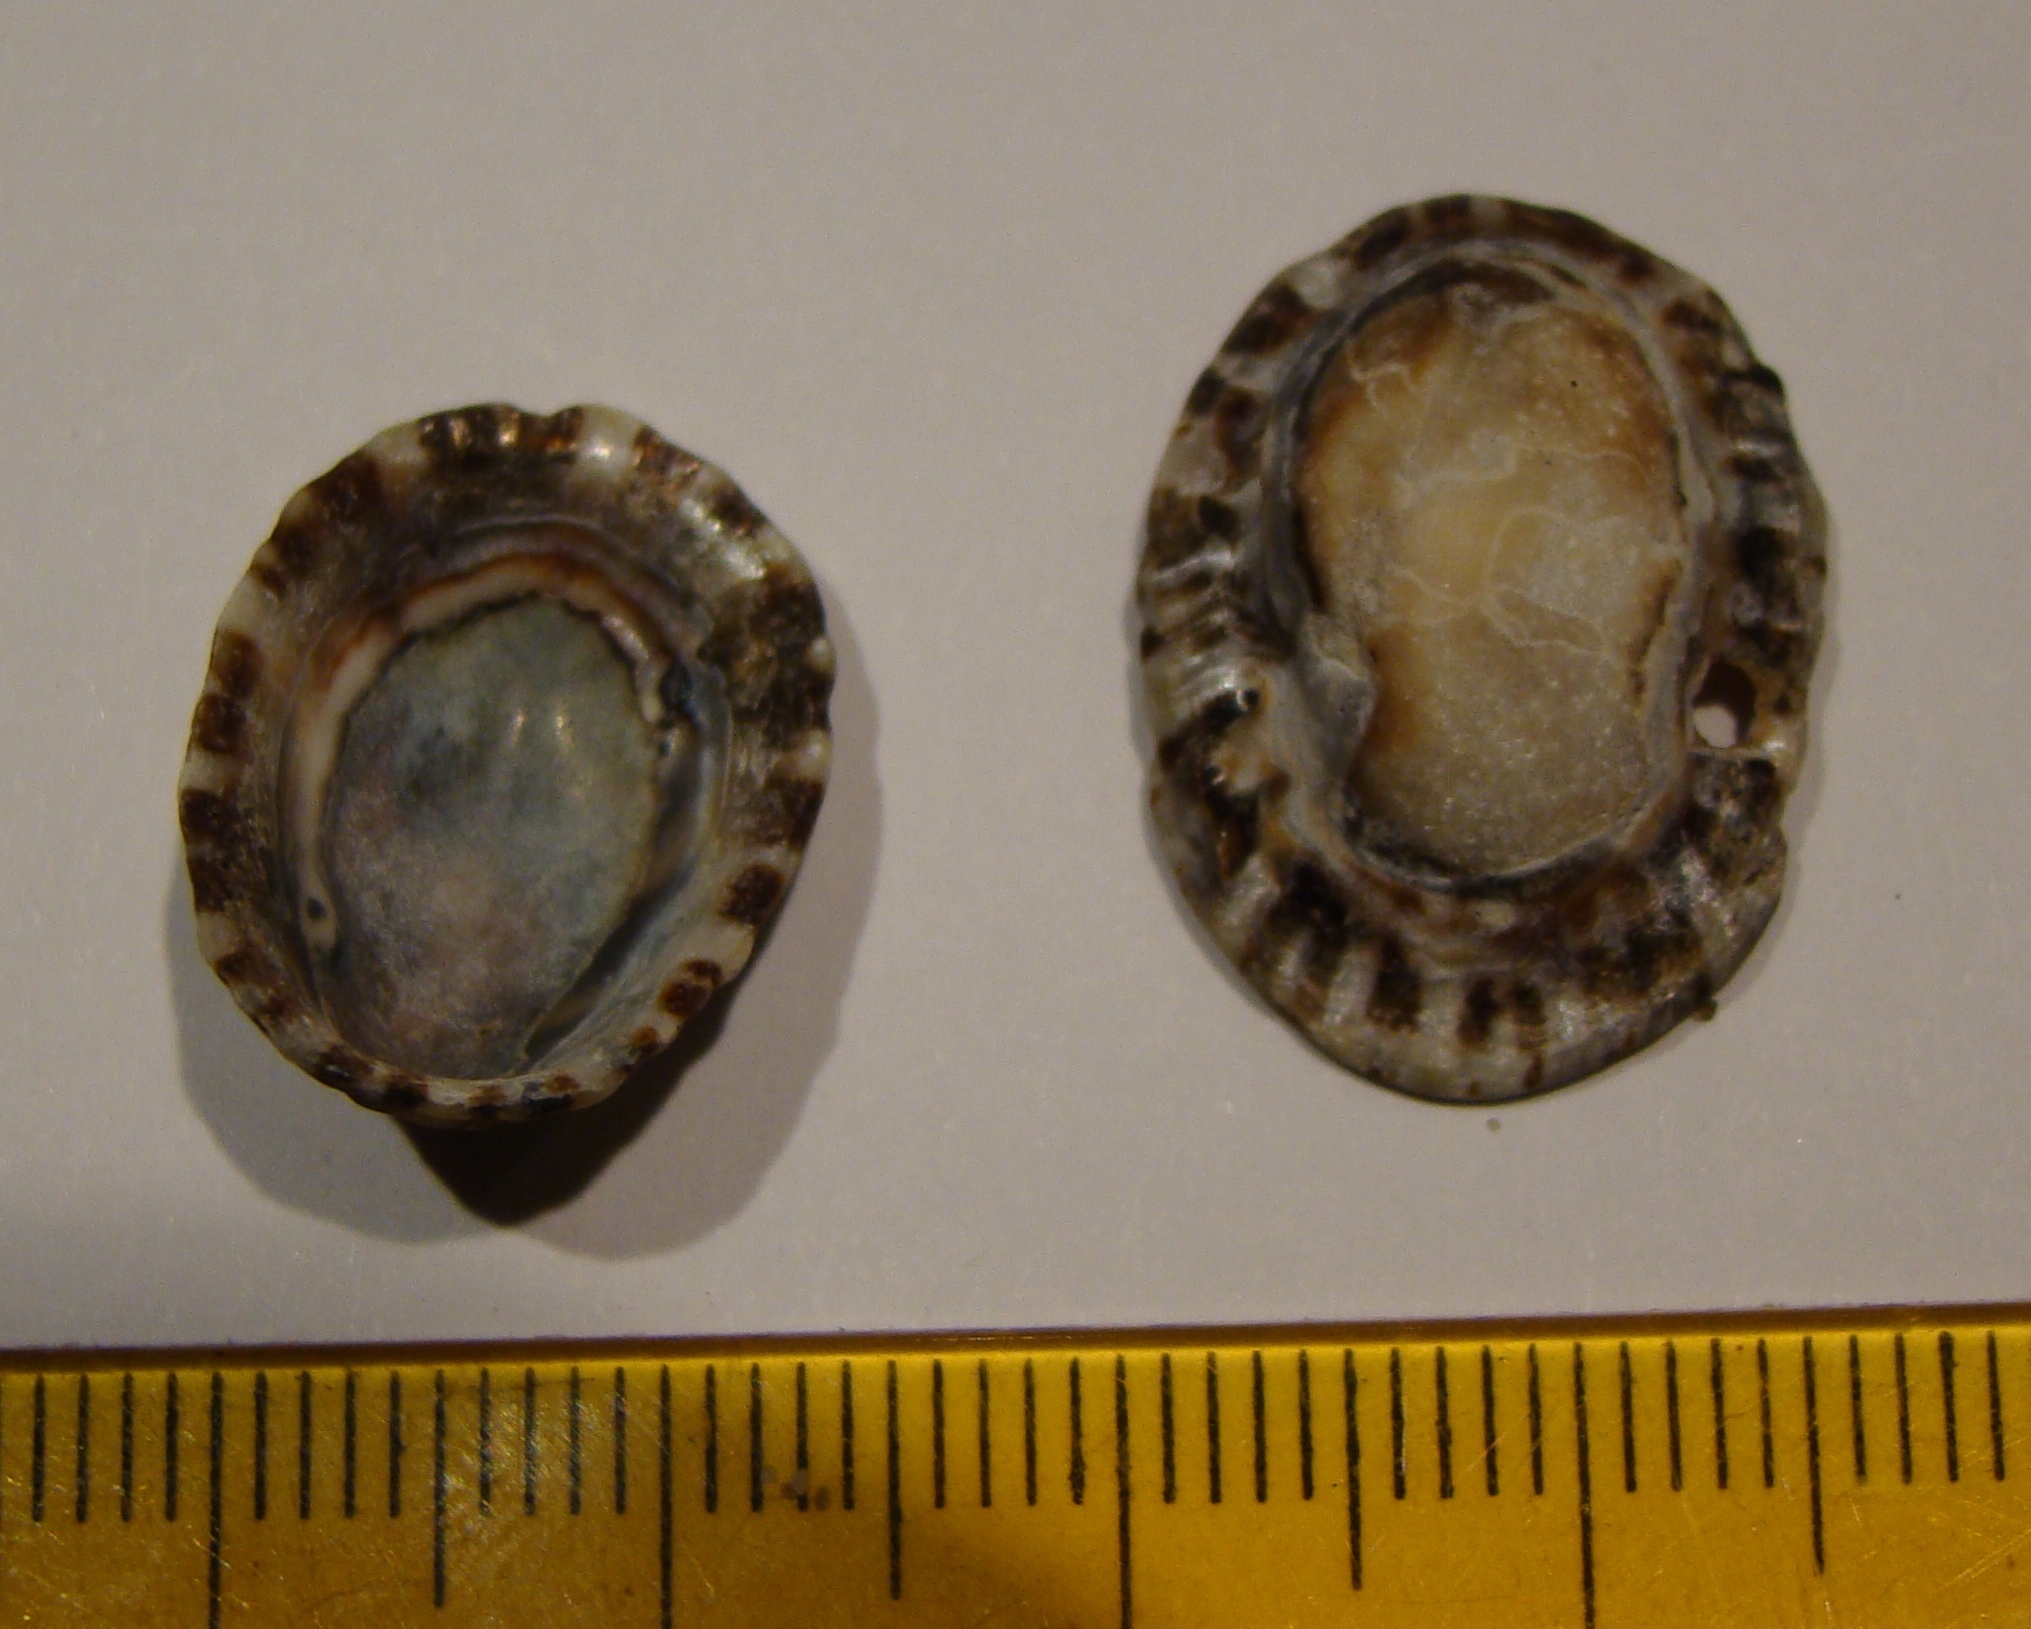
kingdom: Animalia
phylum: Mollusca
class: Gastropoda
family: Nacellidae
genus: Cellana
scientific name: Cellana ornata
